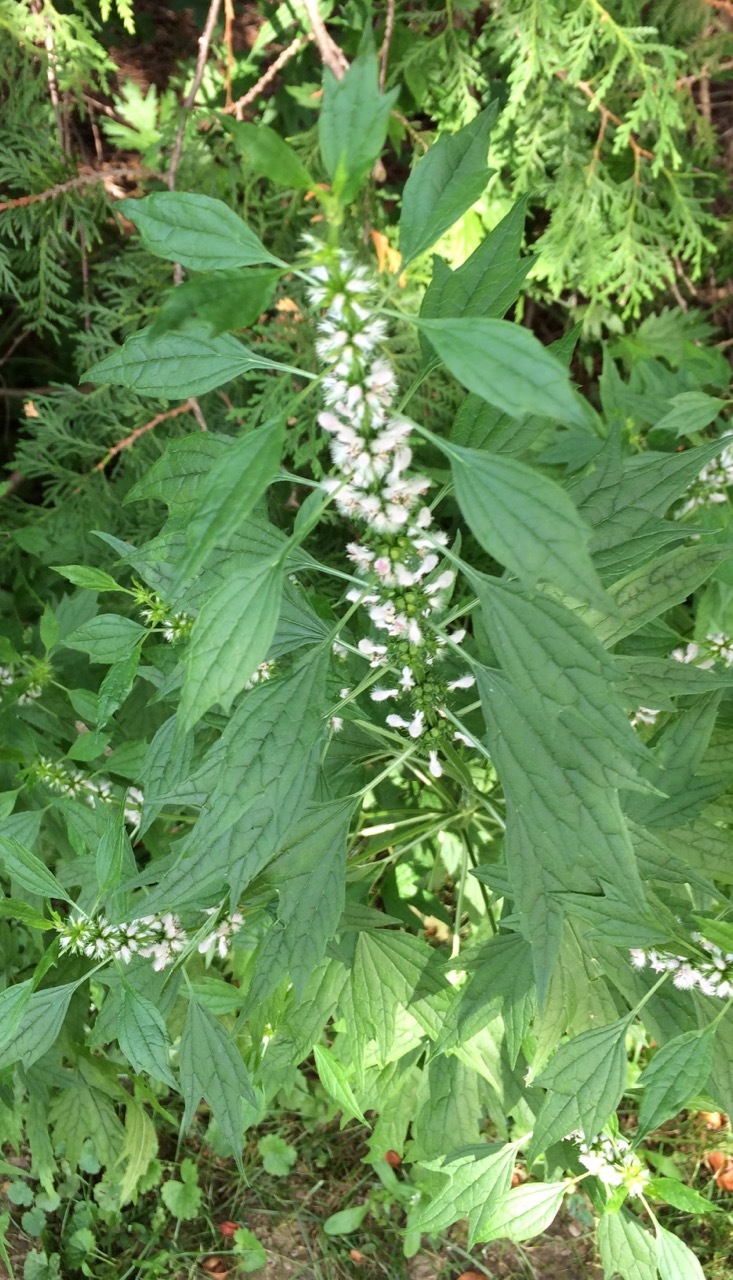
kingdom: Plantae
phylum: Tracheophyta
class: Magnoliopsida
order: Lamiales
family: Lamiaceae
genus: Leonurus
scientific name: Leonurus cardiaca
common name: Motherwort
